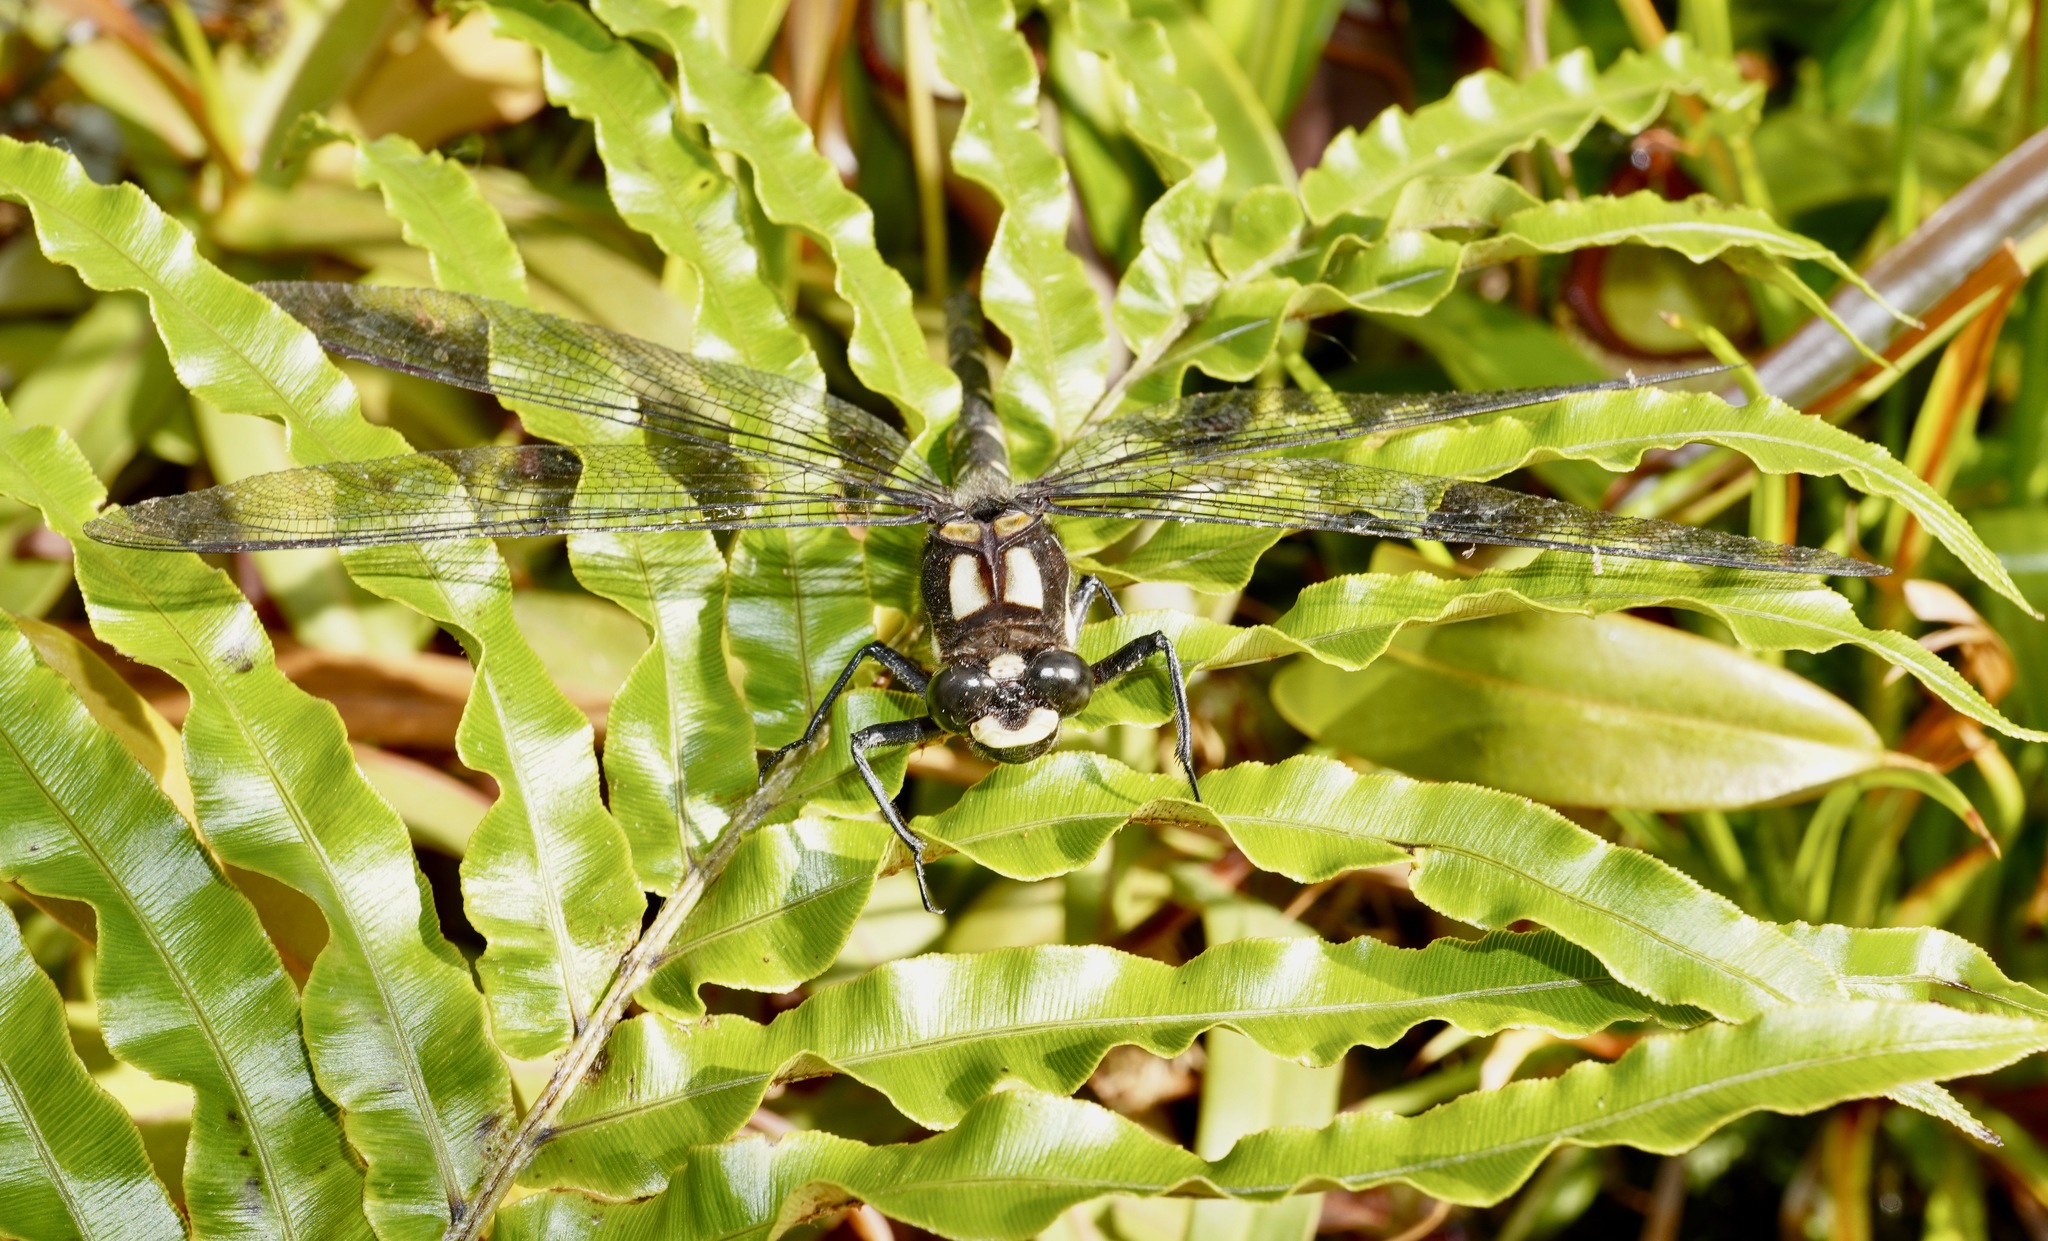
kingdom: Animalia
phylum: Arthropoda
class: Insecta
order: Odonata
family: Petaluridae
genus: Uropetala
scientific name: Uropetala carovei
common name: Bush giant dragonfly
